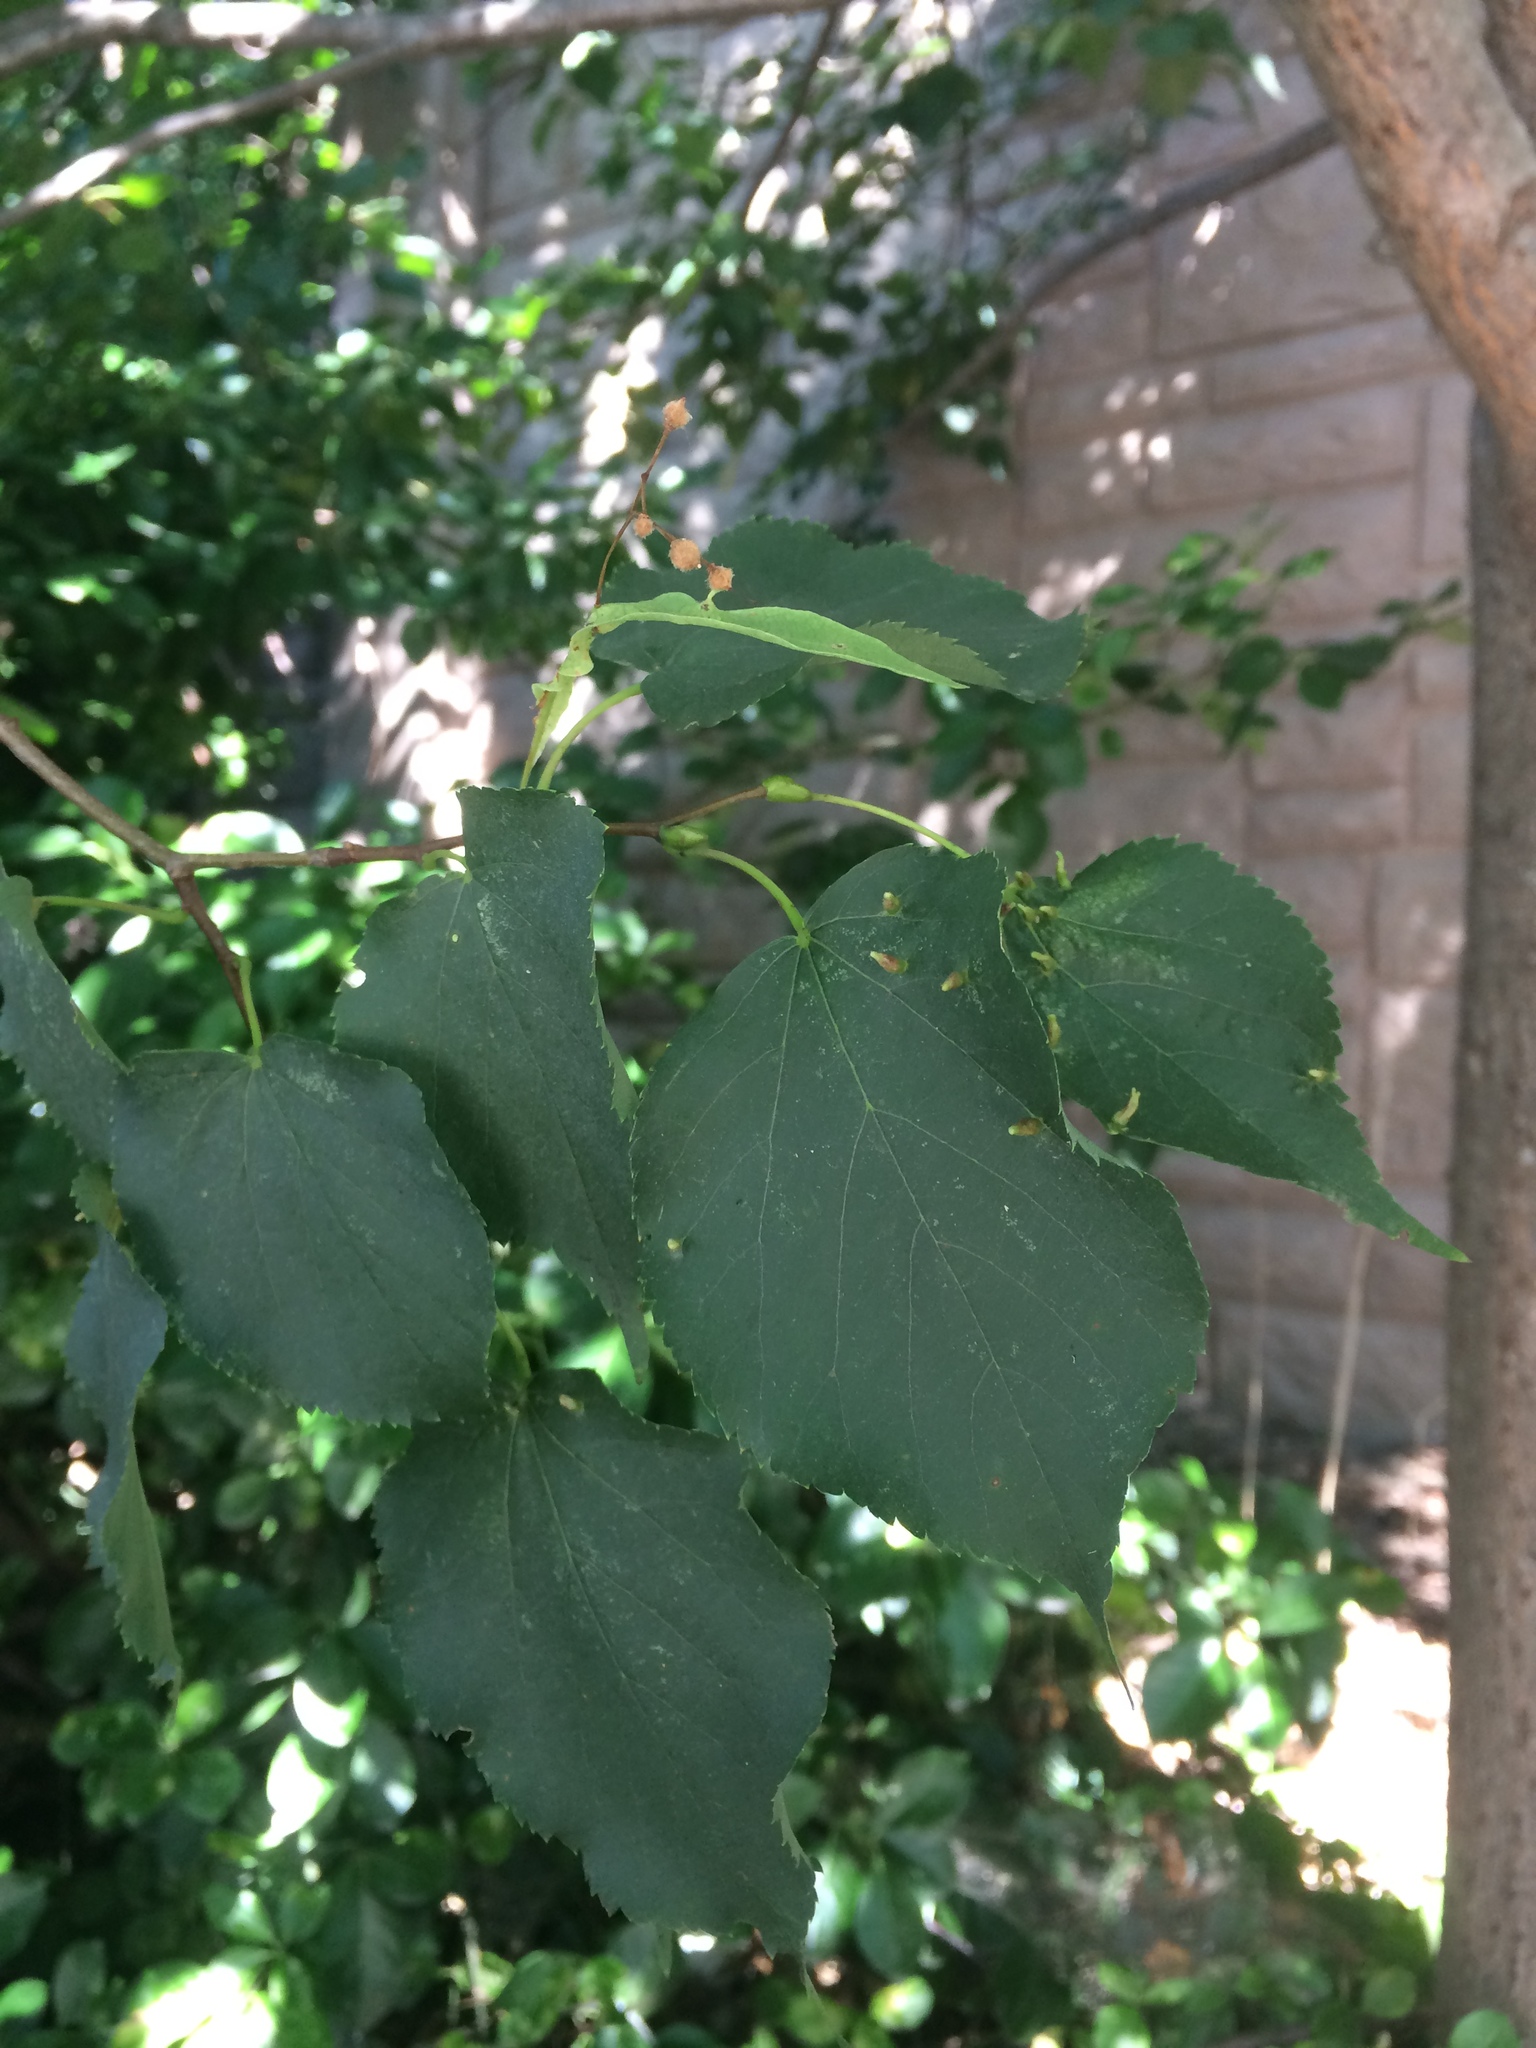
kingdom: Animalia
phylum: Arthropoda
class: Arachnida
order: Trombidiformes
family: Eriophyidae
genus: Eriophyes
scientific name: Eriophyes tiliae
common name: Red nail gall mite
